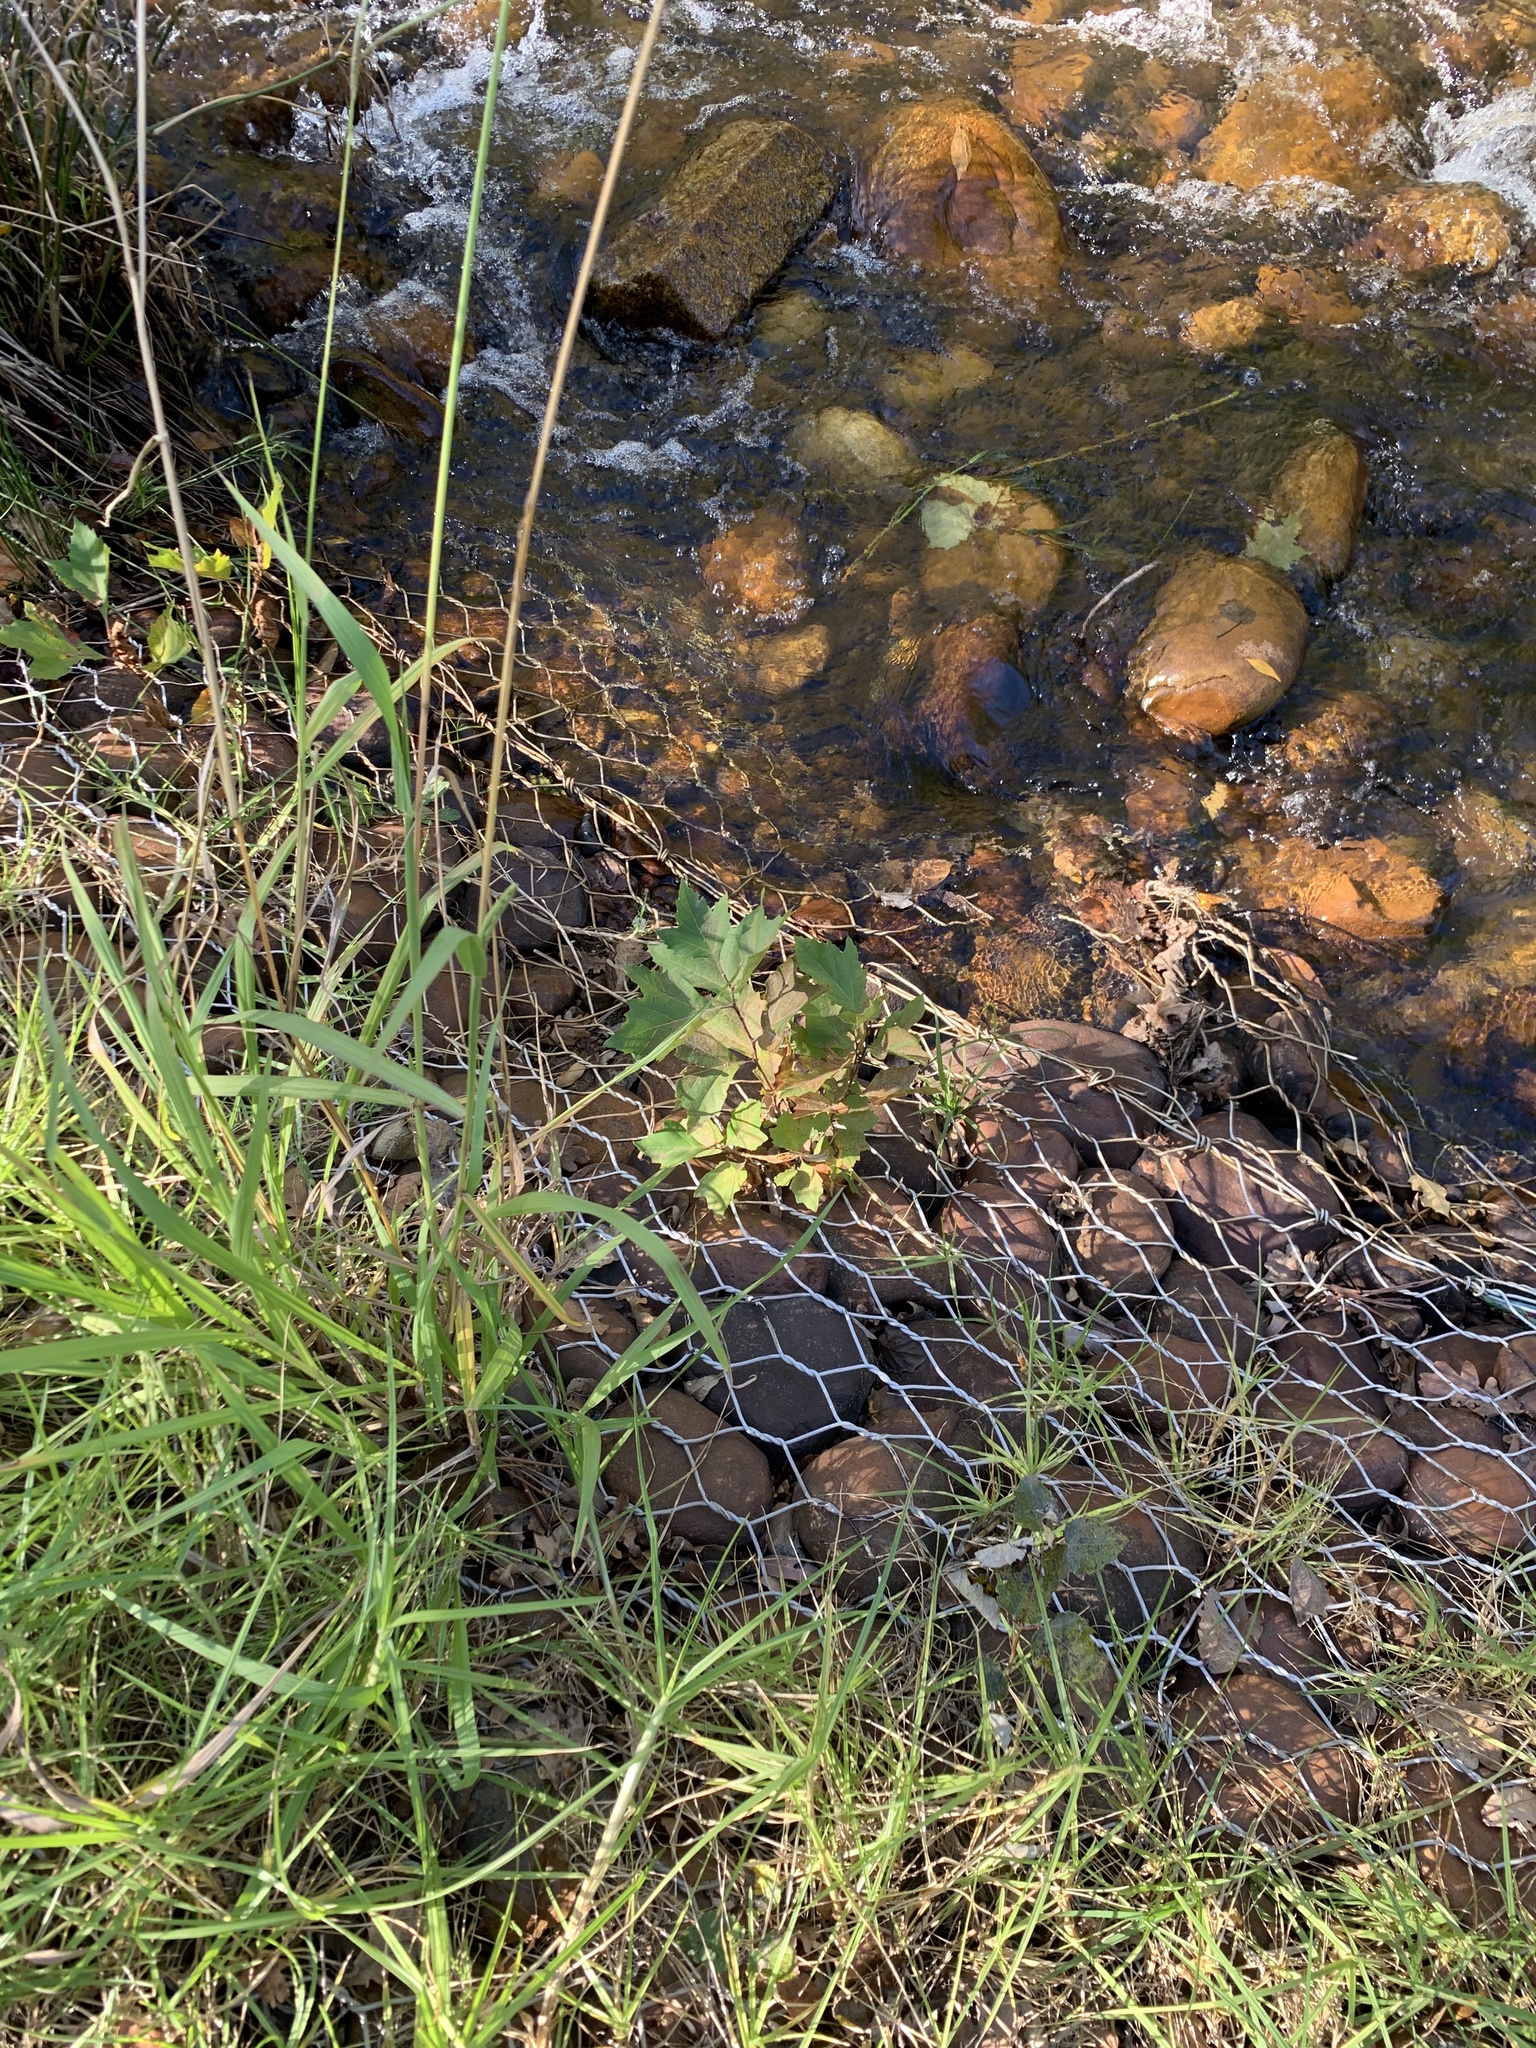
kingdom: Plantae
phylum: Tracheophyta
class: Magnoliopsida
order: Proteales
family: Platanaceae
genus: Platanus
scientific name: Platanus hispanica
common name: London plane
